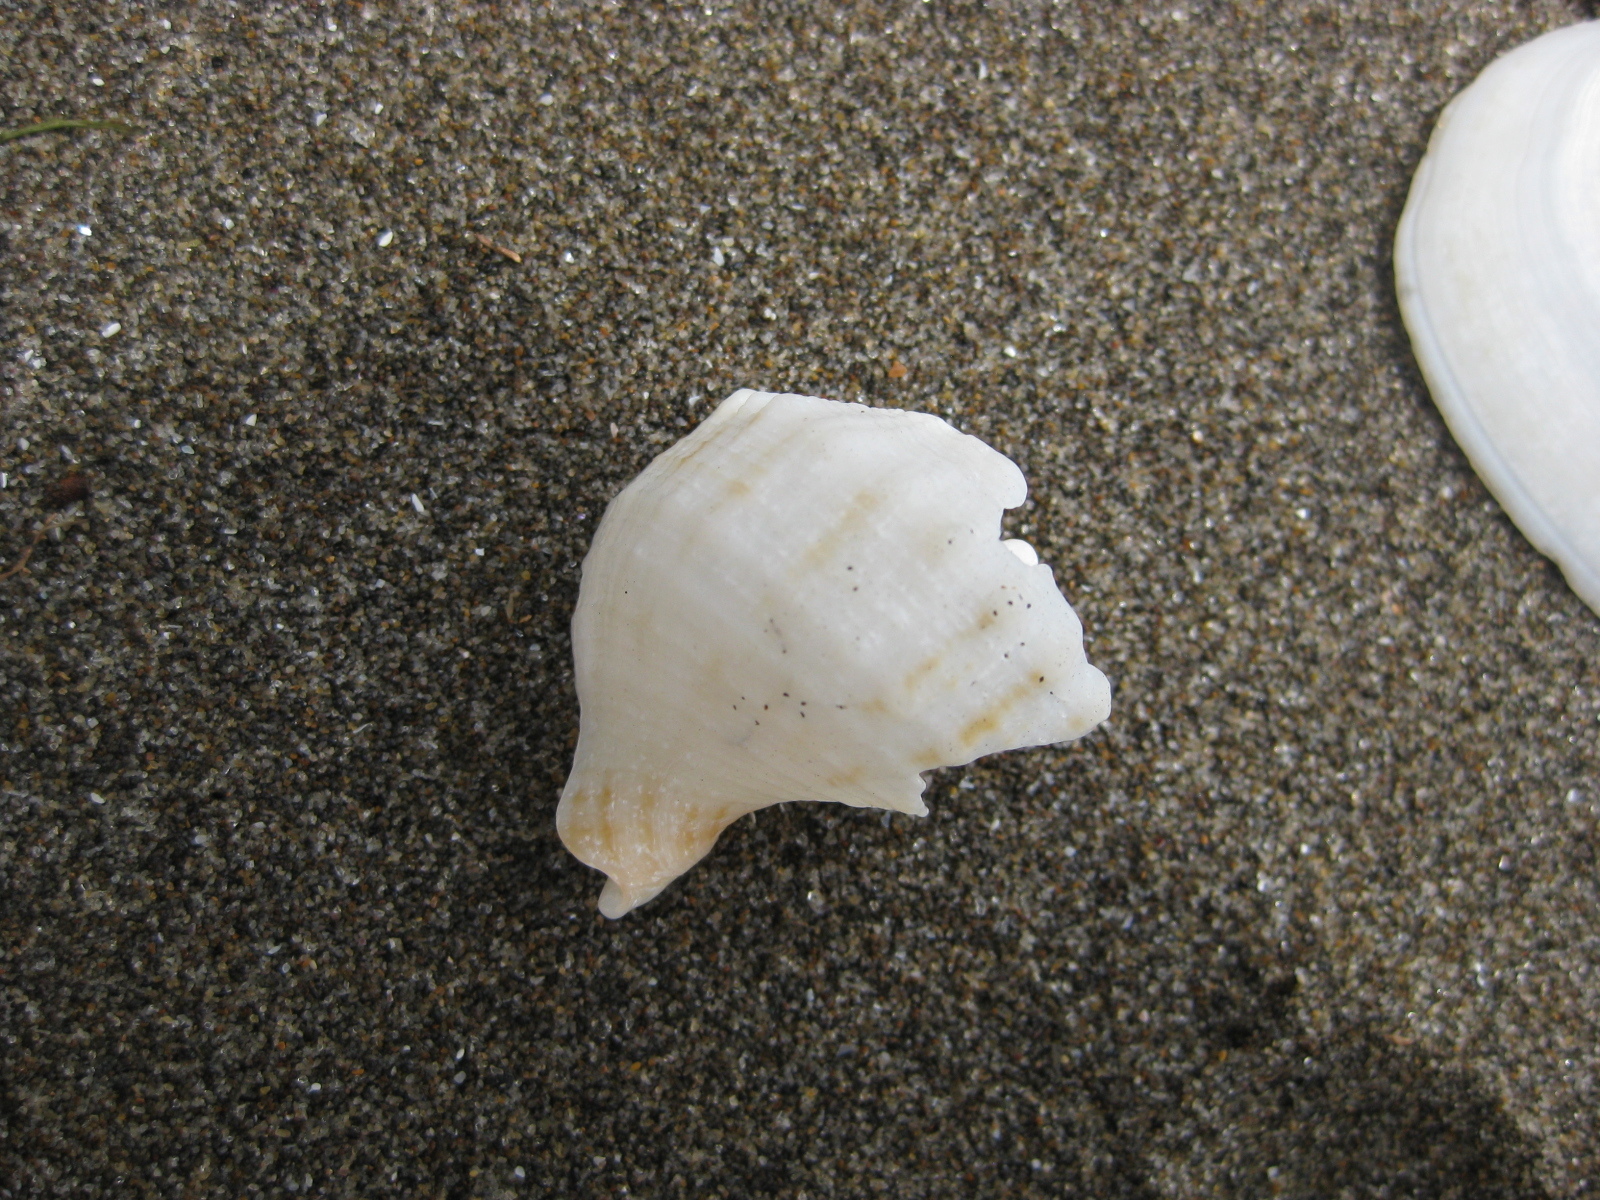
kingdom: Animalia
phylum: Mollusca
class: Gastropoda
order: Neogastropoda
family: Prosiphonidae
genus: Austrofusus
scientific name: Austrofusus glans
